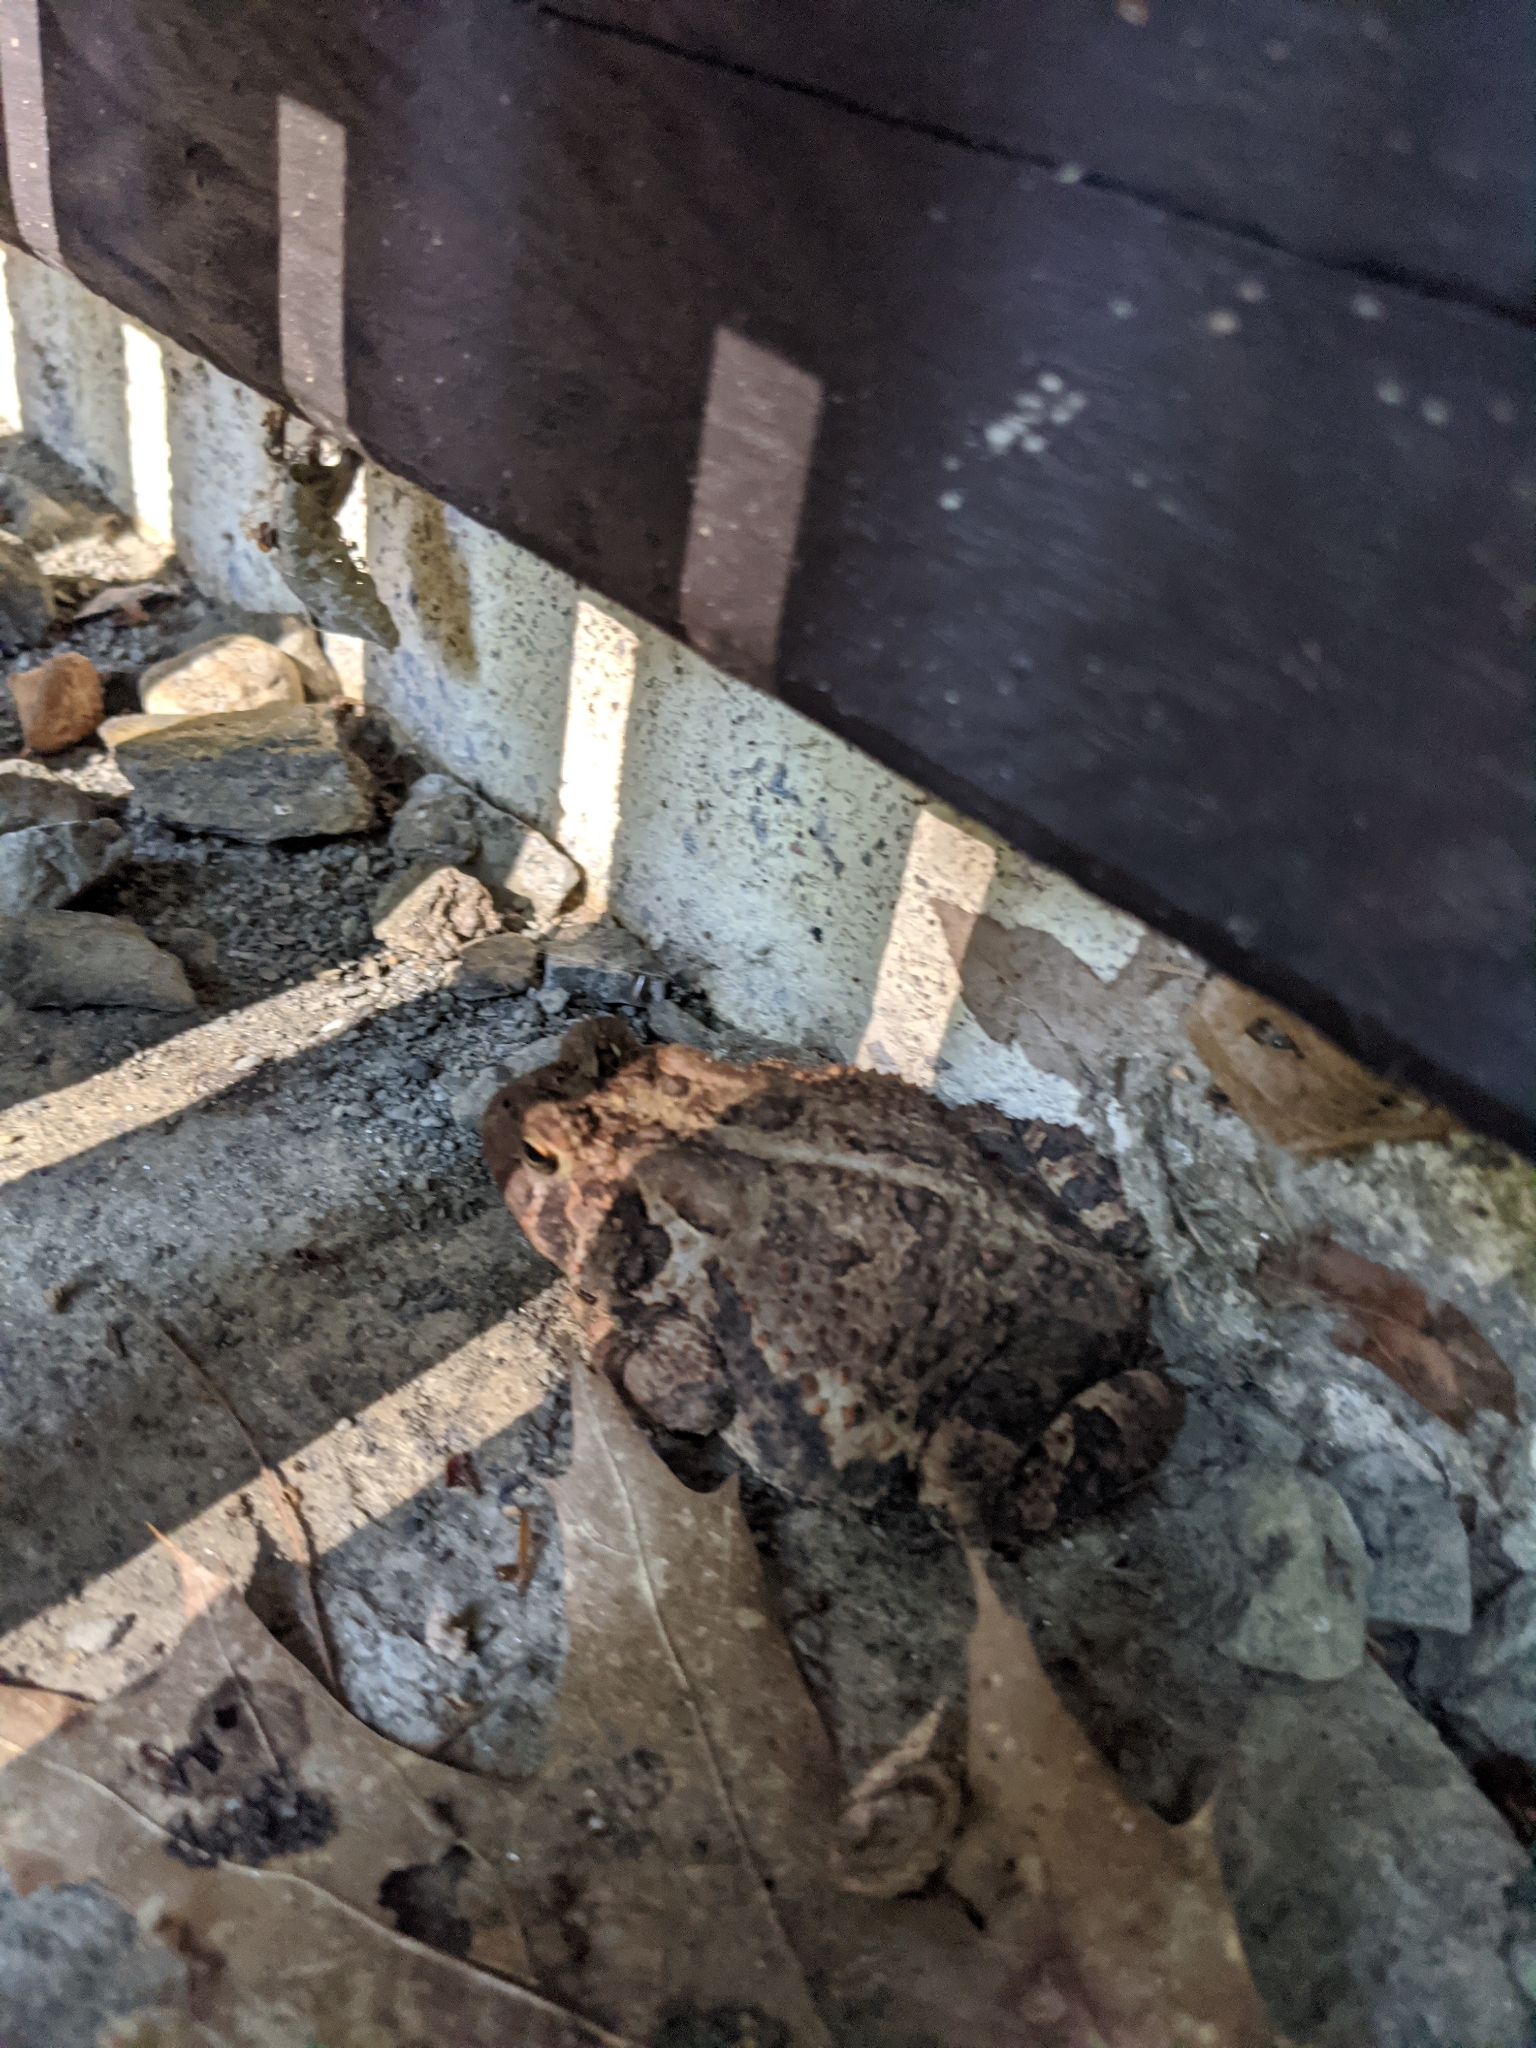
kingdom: Animalia
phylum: Chordata
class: Amphibia
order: Anura
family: Bufonidae
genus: Anaxyrus
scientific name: Anaxyrus americanus
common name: American toad
